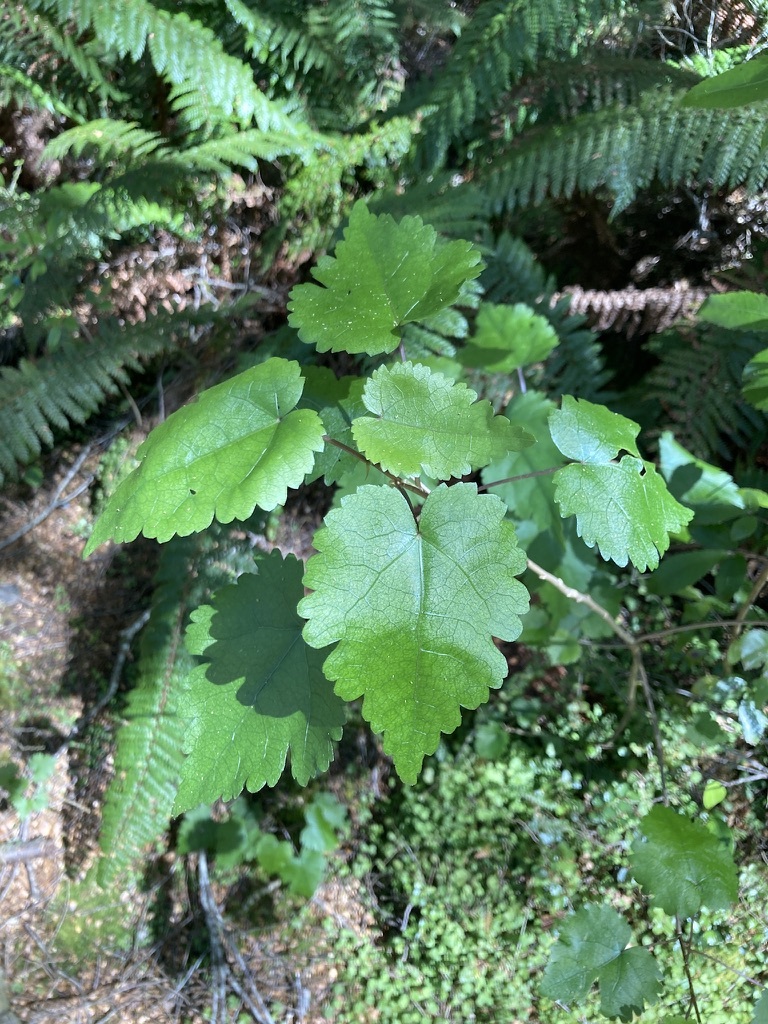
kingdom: Plantae
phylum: Tracheophyta
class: Magnoliopsida
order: Malvales
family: Malvaceae
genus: Hoheria
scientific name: Hoheria glabrata
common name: Mountain-ribbon
